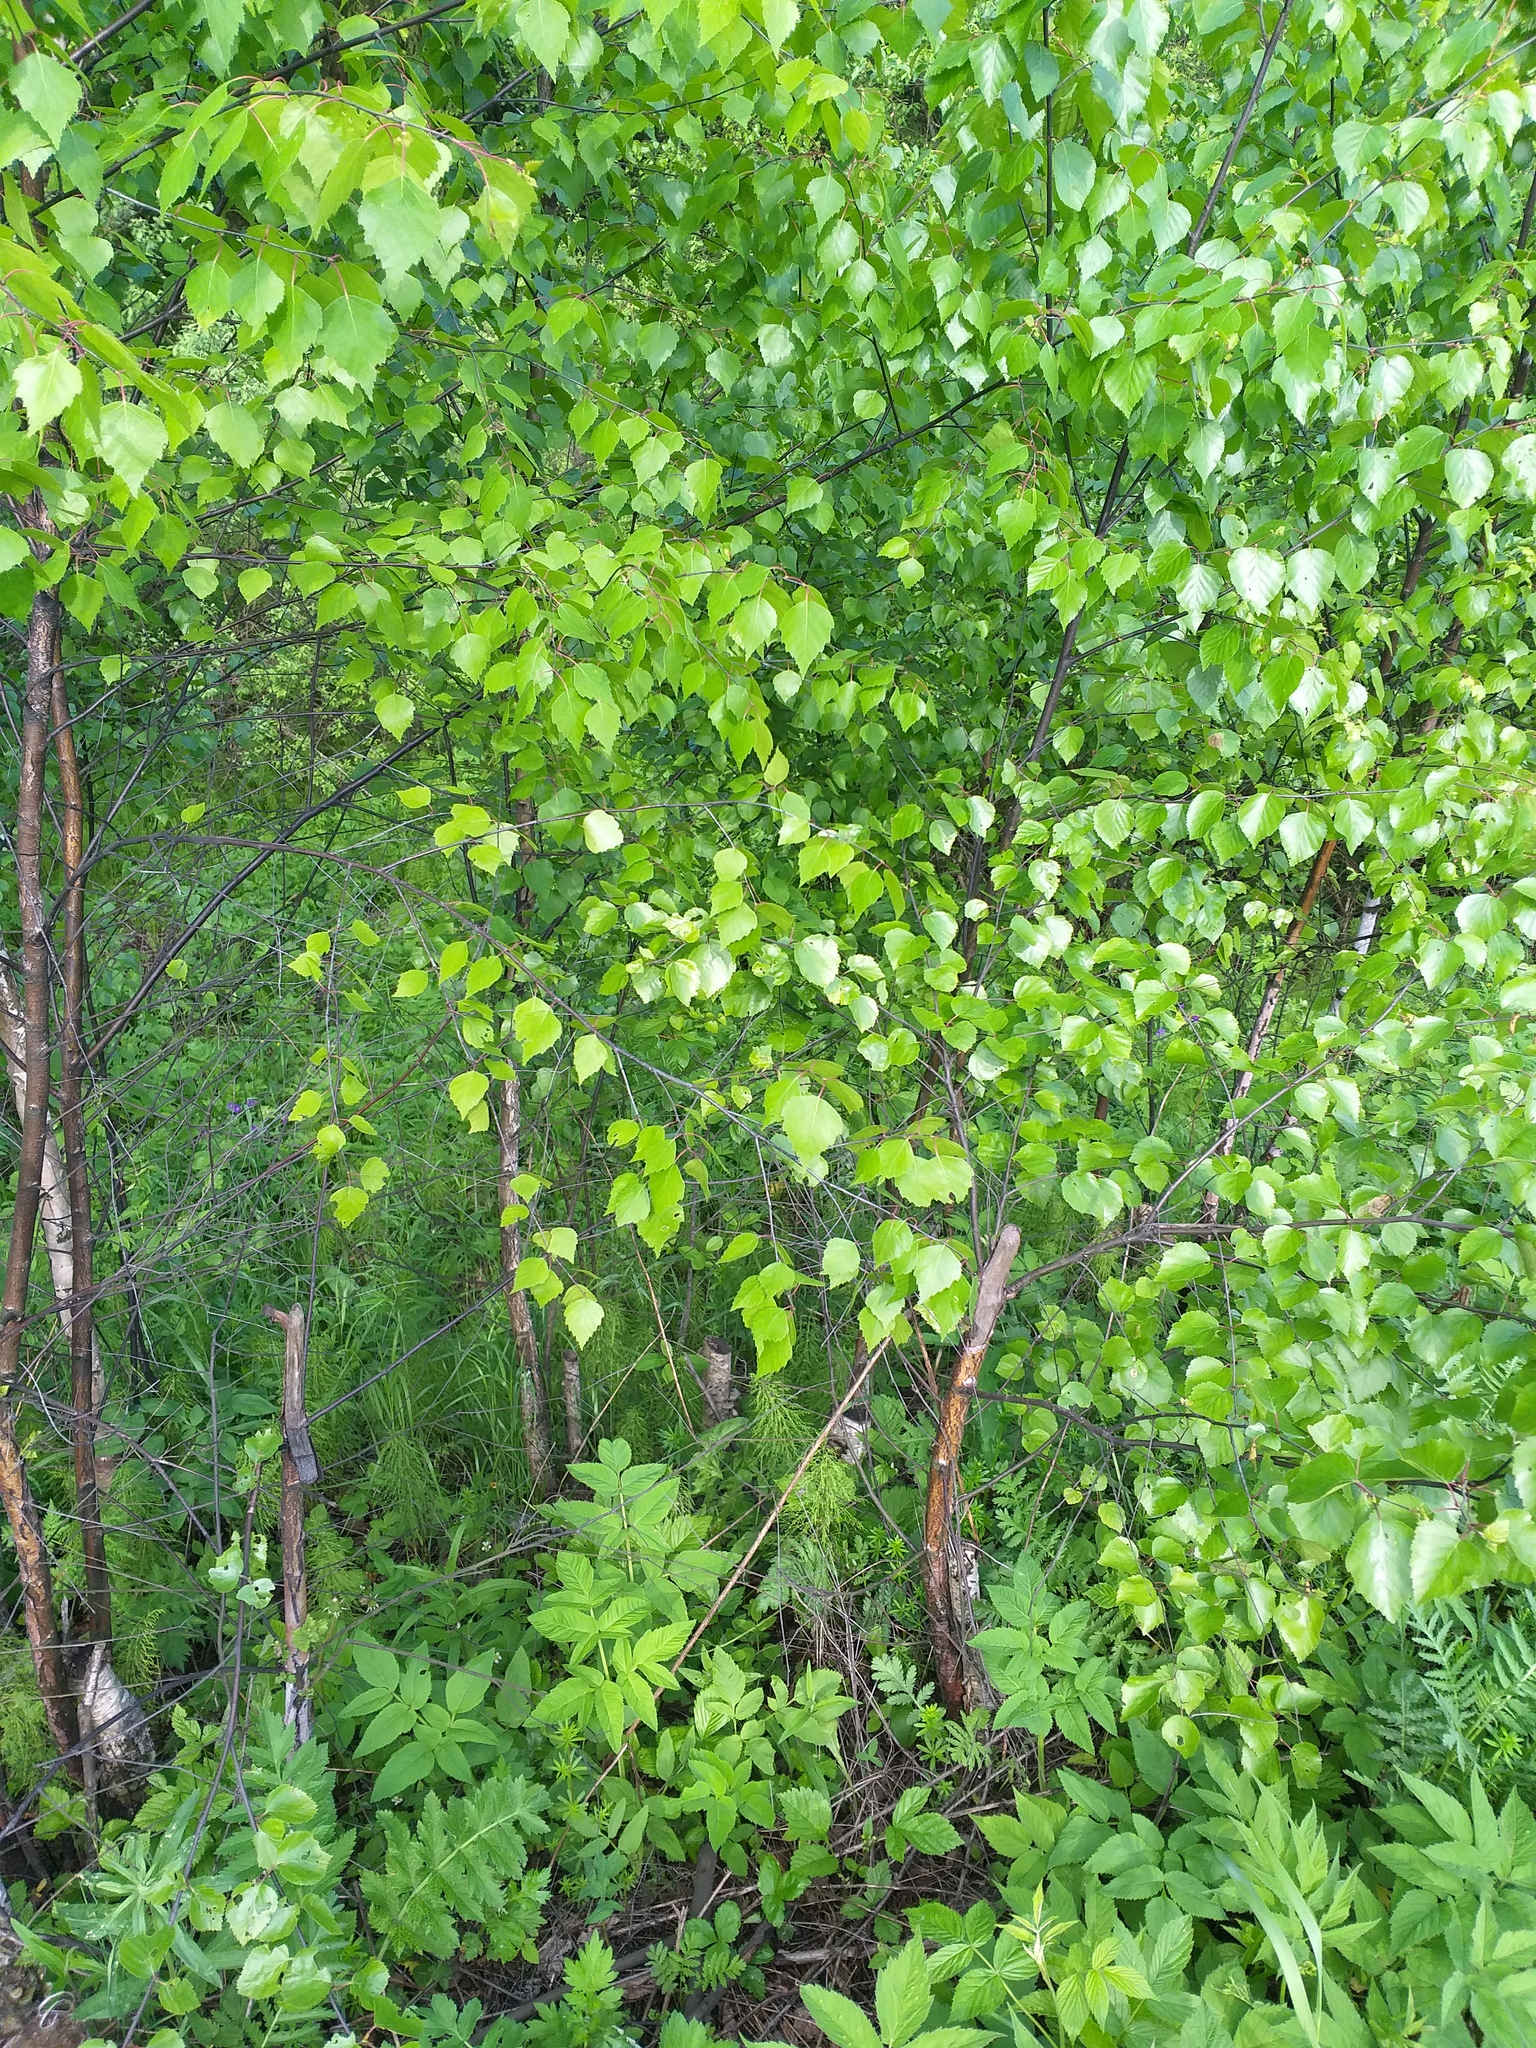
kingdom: Plantae
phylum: Tracheophyta
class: Magnoliopsida
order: Fagales
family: Betulaceae
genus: Betula
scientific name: Betula pendula
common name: Silver birch
